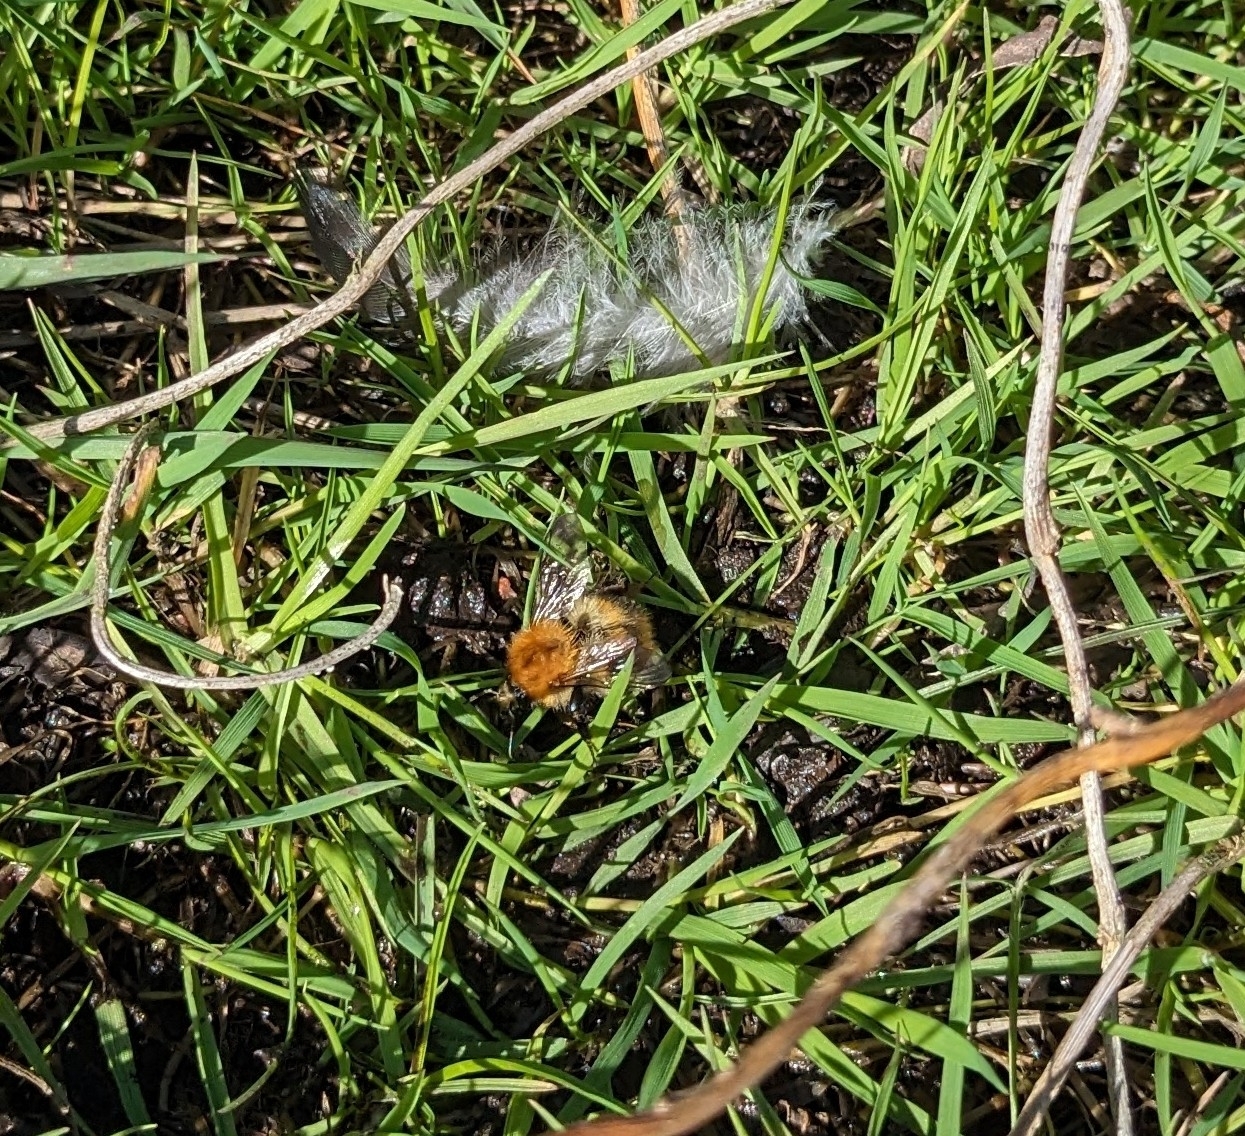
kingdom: Animalia
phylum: Arthropoda
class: Insecta
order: Hymenoptera
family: Apidae
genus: Bombus
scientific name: Bombus pascuorum
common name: Common carder bee
